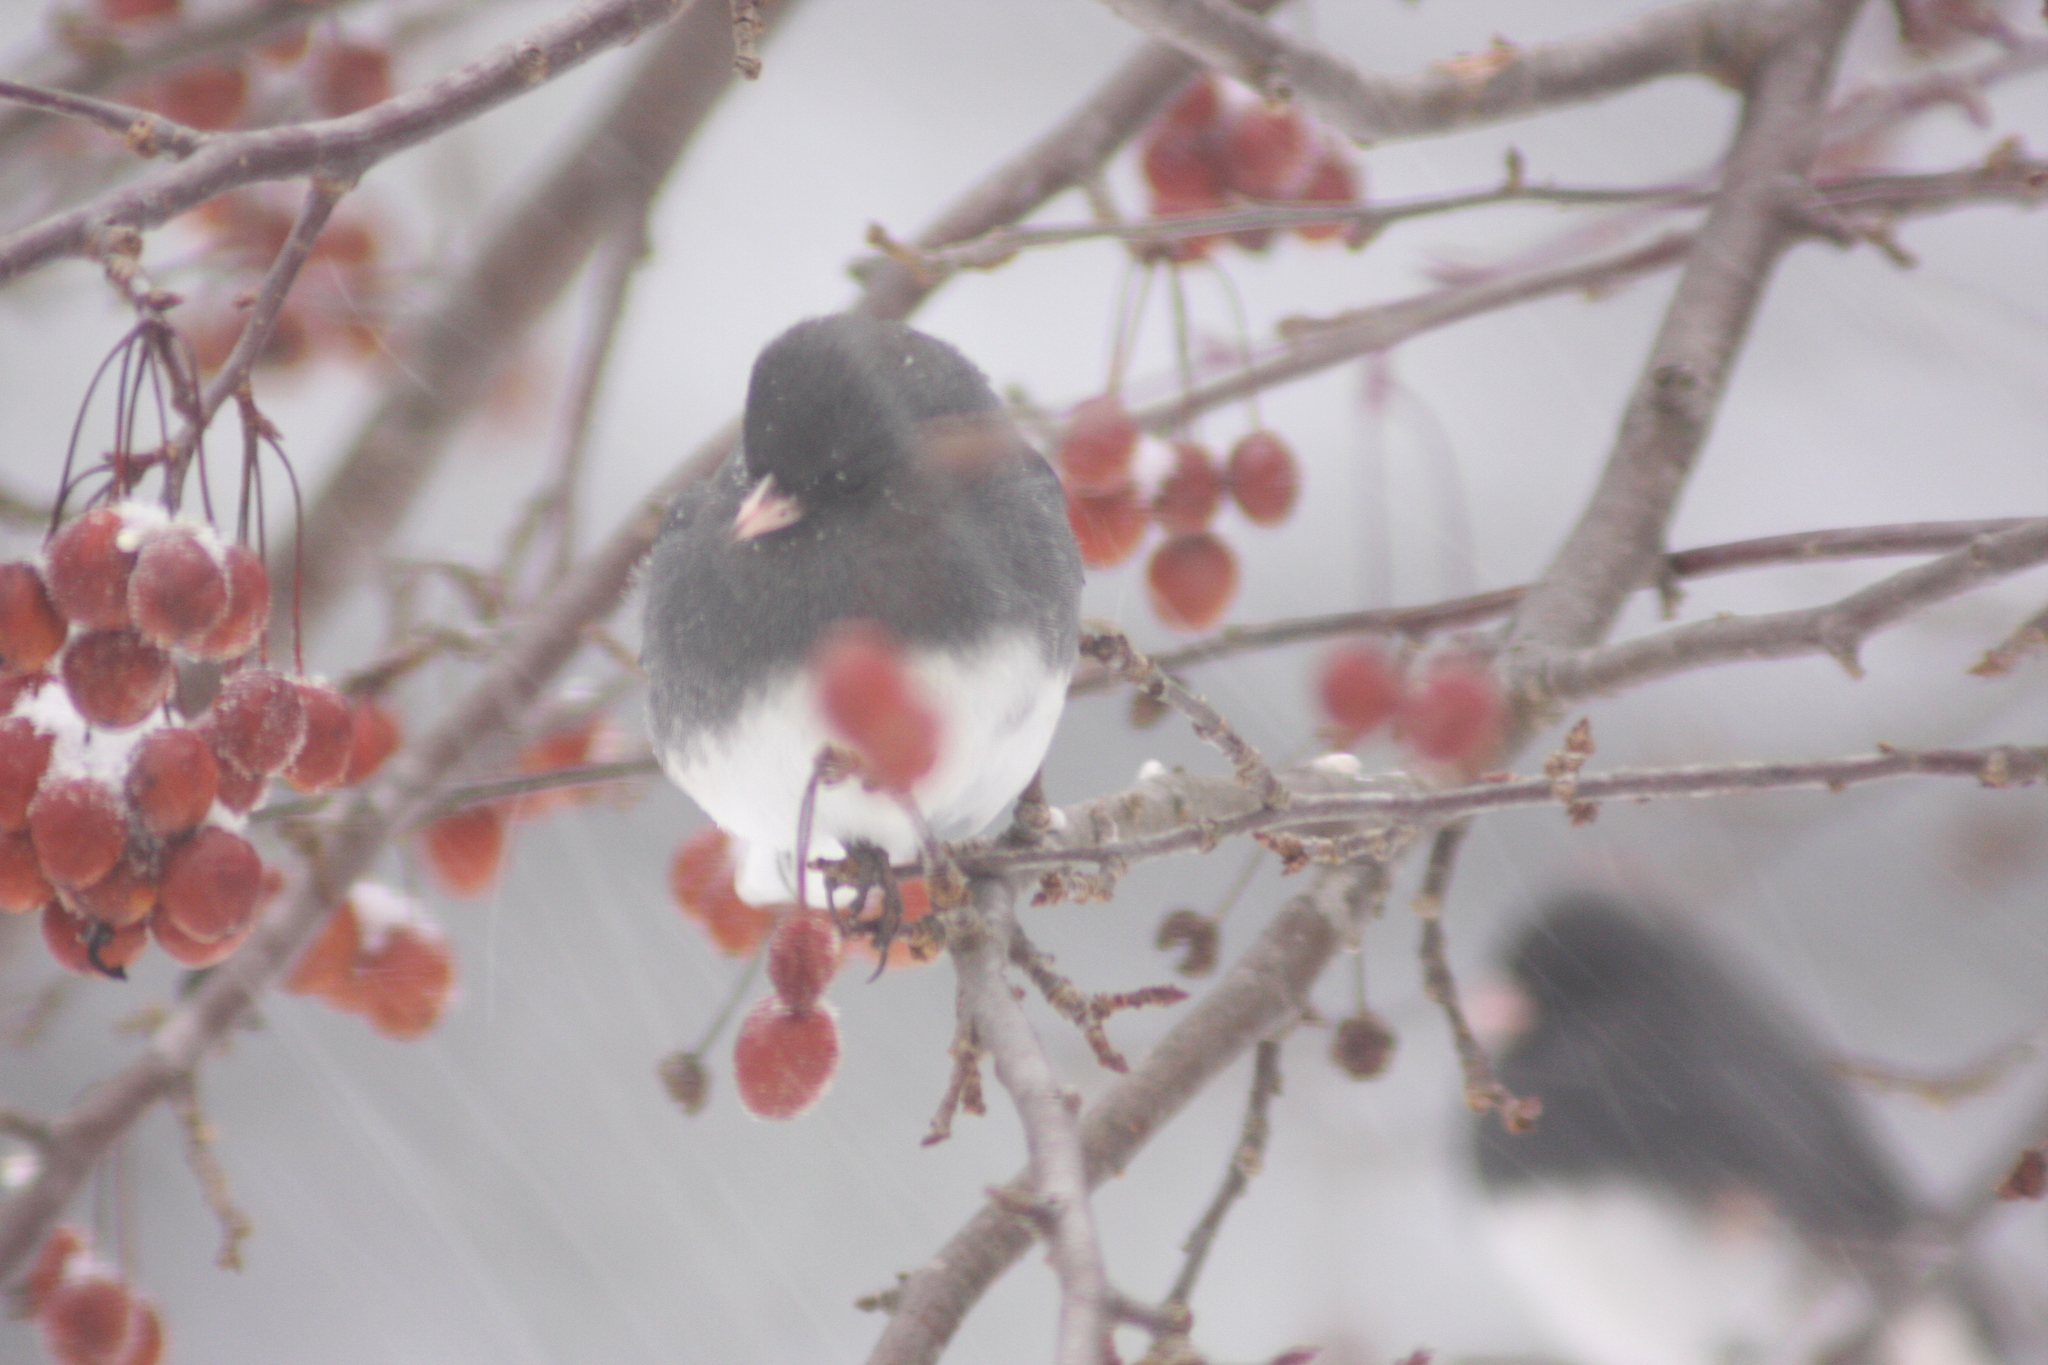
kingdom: Animalia
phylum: Chordata
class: Aves
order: Passeriformes
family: Passerellidae
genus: Junco
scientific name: Junco hyemalis
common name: Dark-eyed junco
